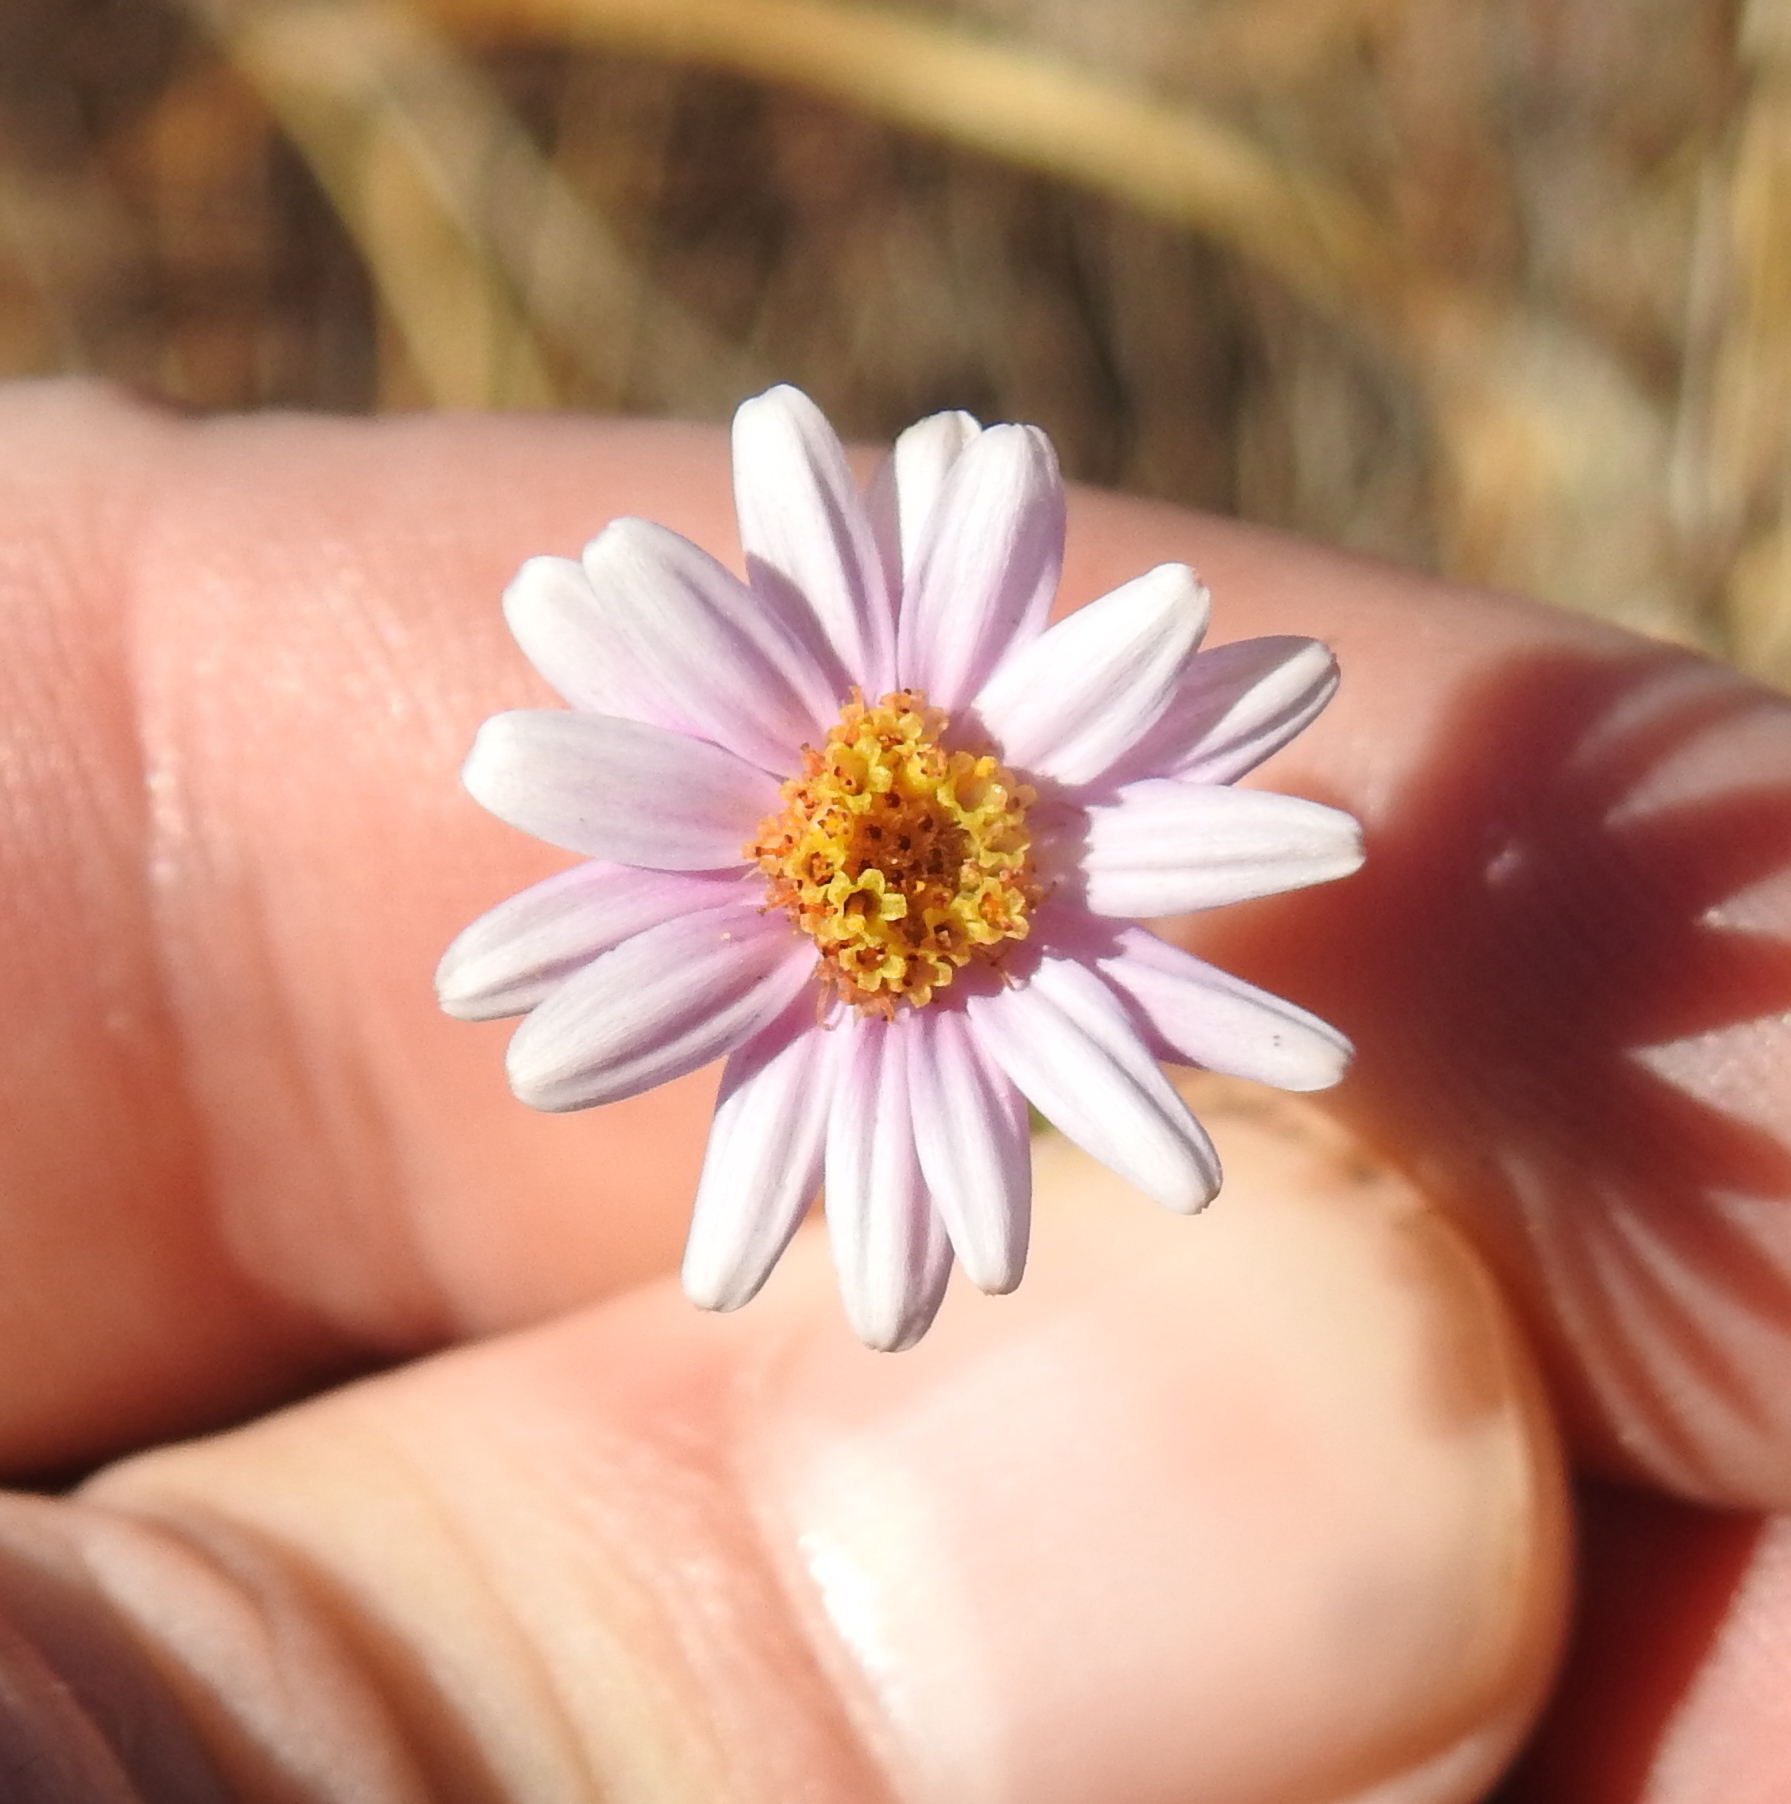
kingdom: Plantae
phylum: Tracheophyta
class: Magnoliopsida
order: Asterales
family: Asteraceae
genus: Athrixia
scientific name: Athrixia elata
